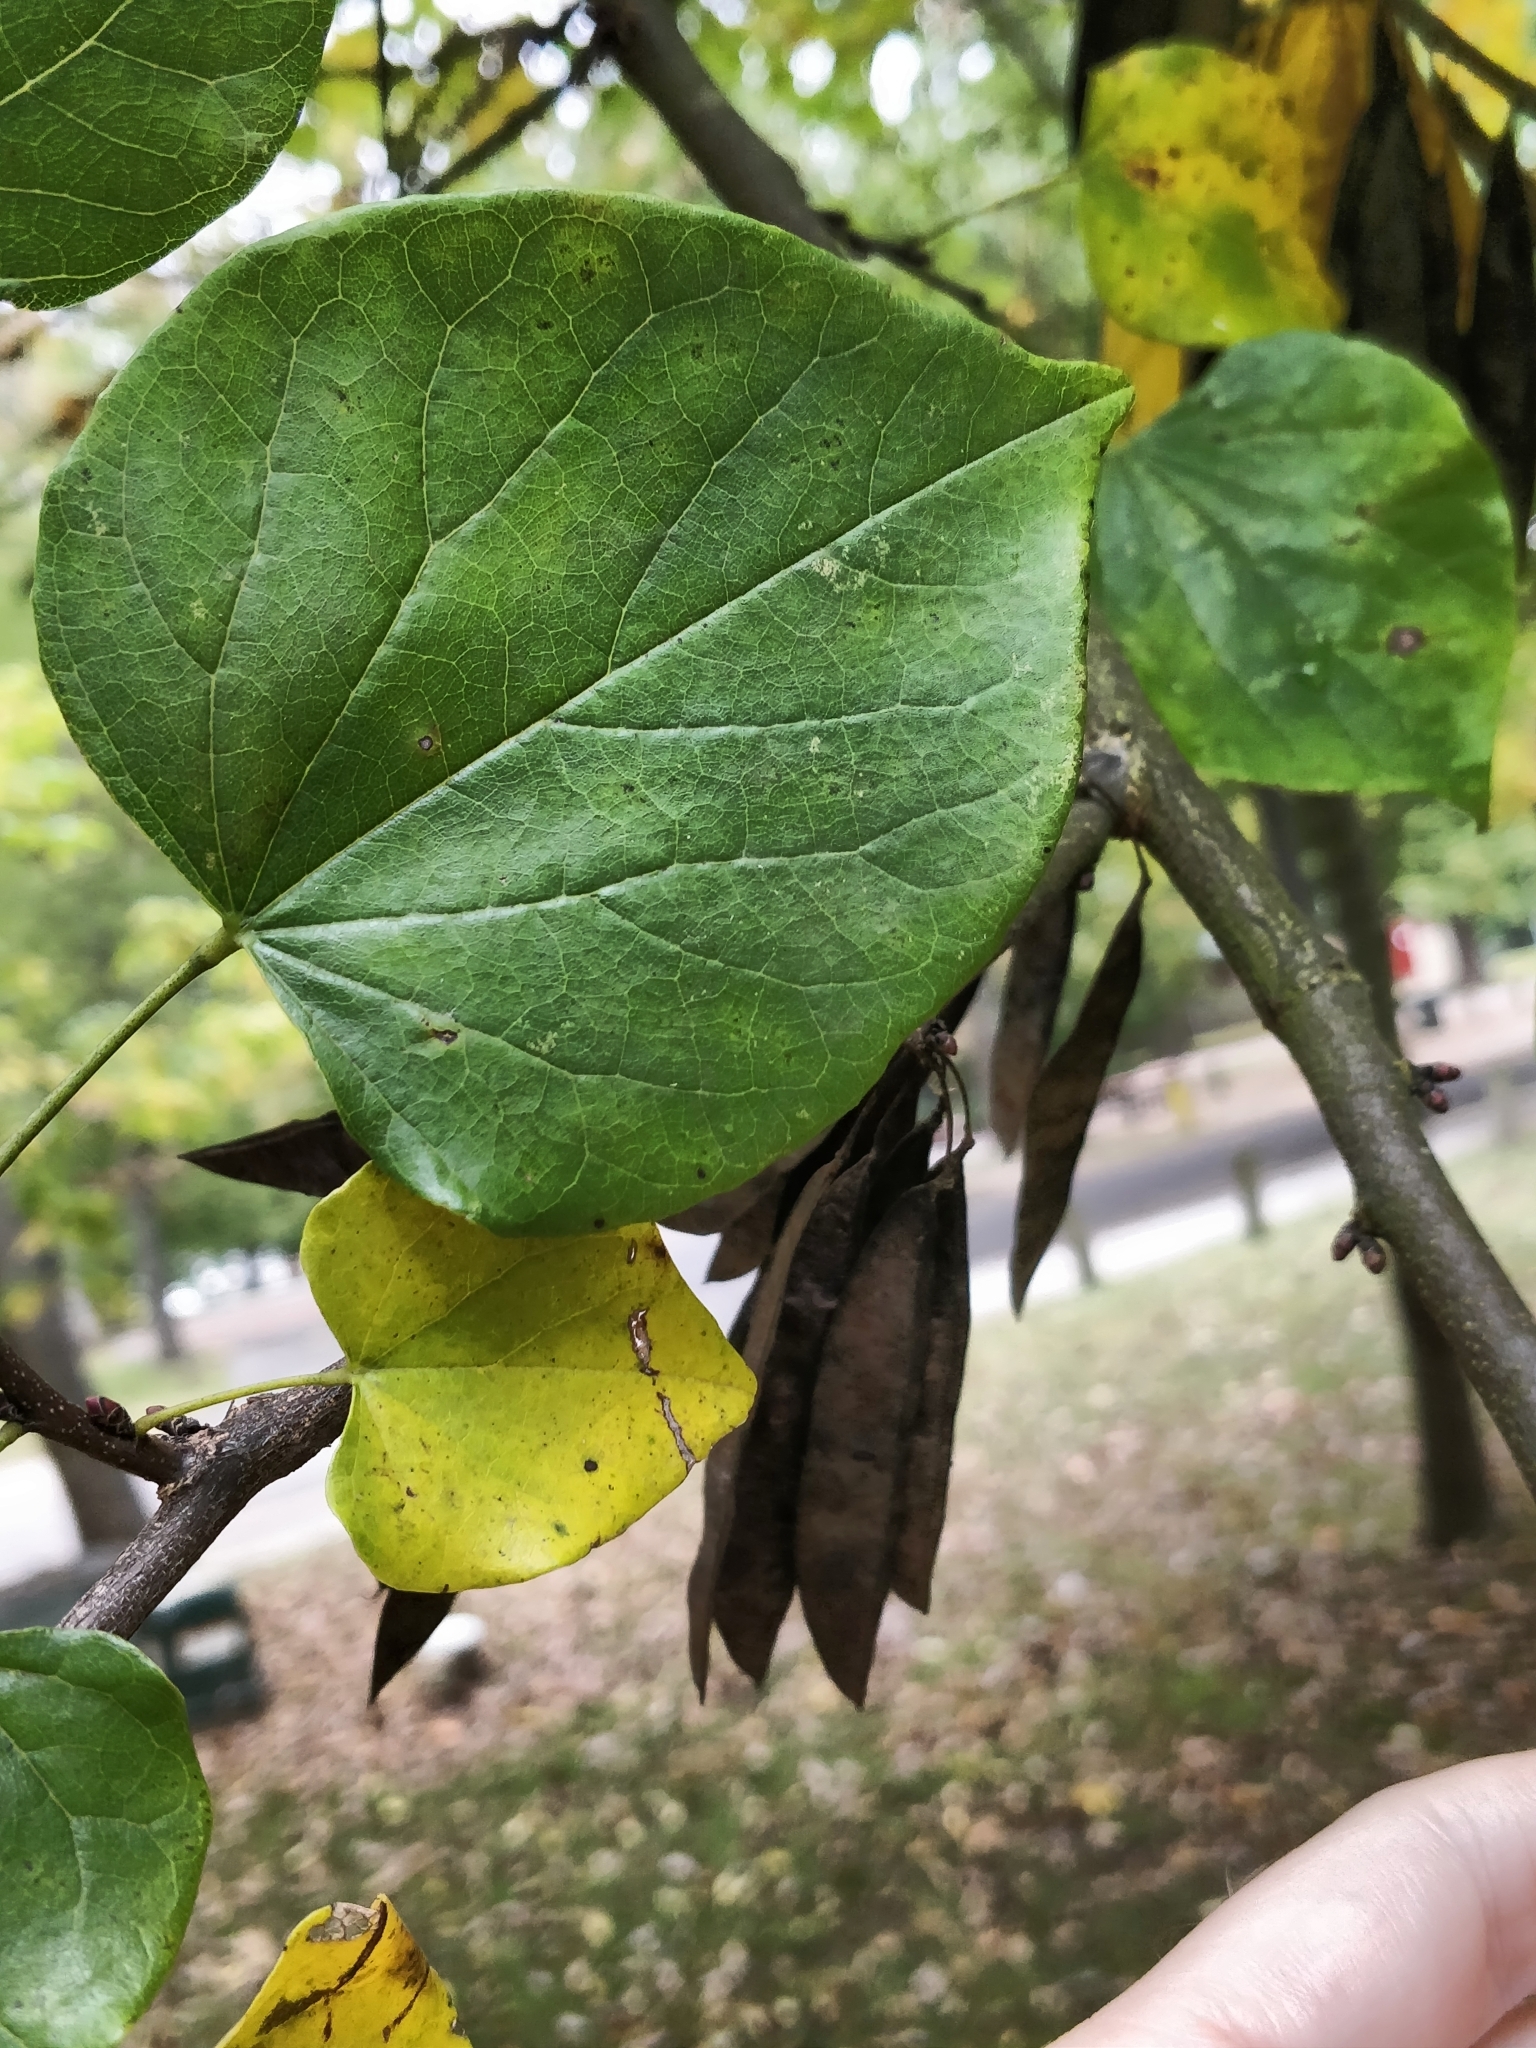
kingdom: Plantae
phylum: Tracheophyta
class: Magnoliopsida
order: Fabales
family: Fabaceae
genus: Cercis
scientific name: Cercis canadensis
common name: Eastern redbud
